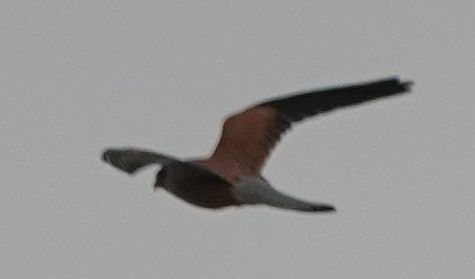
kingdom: Animalia
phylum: Chordata
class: Aves
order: Falconiformes
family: Falconidae
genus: Falco
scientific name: Falco tinnunculus
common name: Common kestrel
